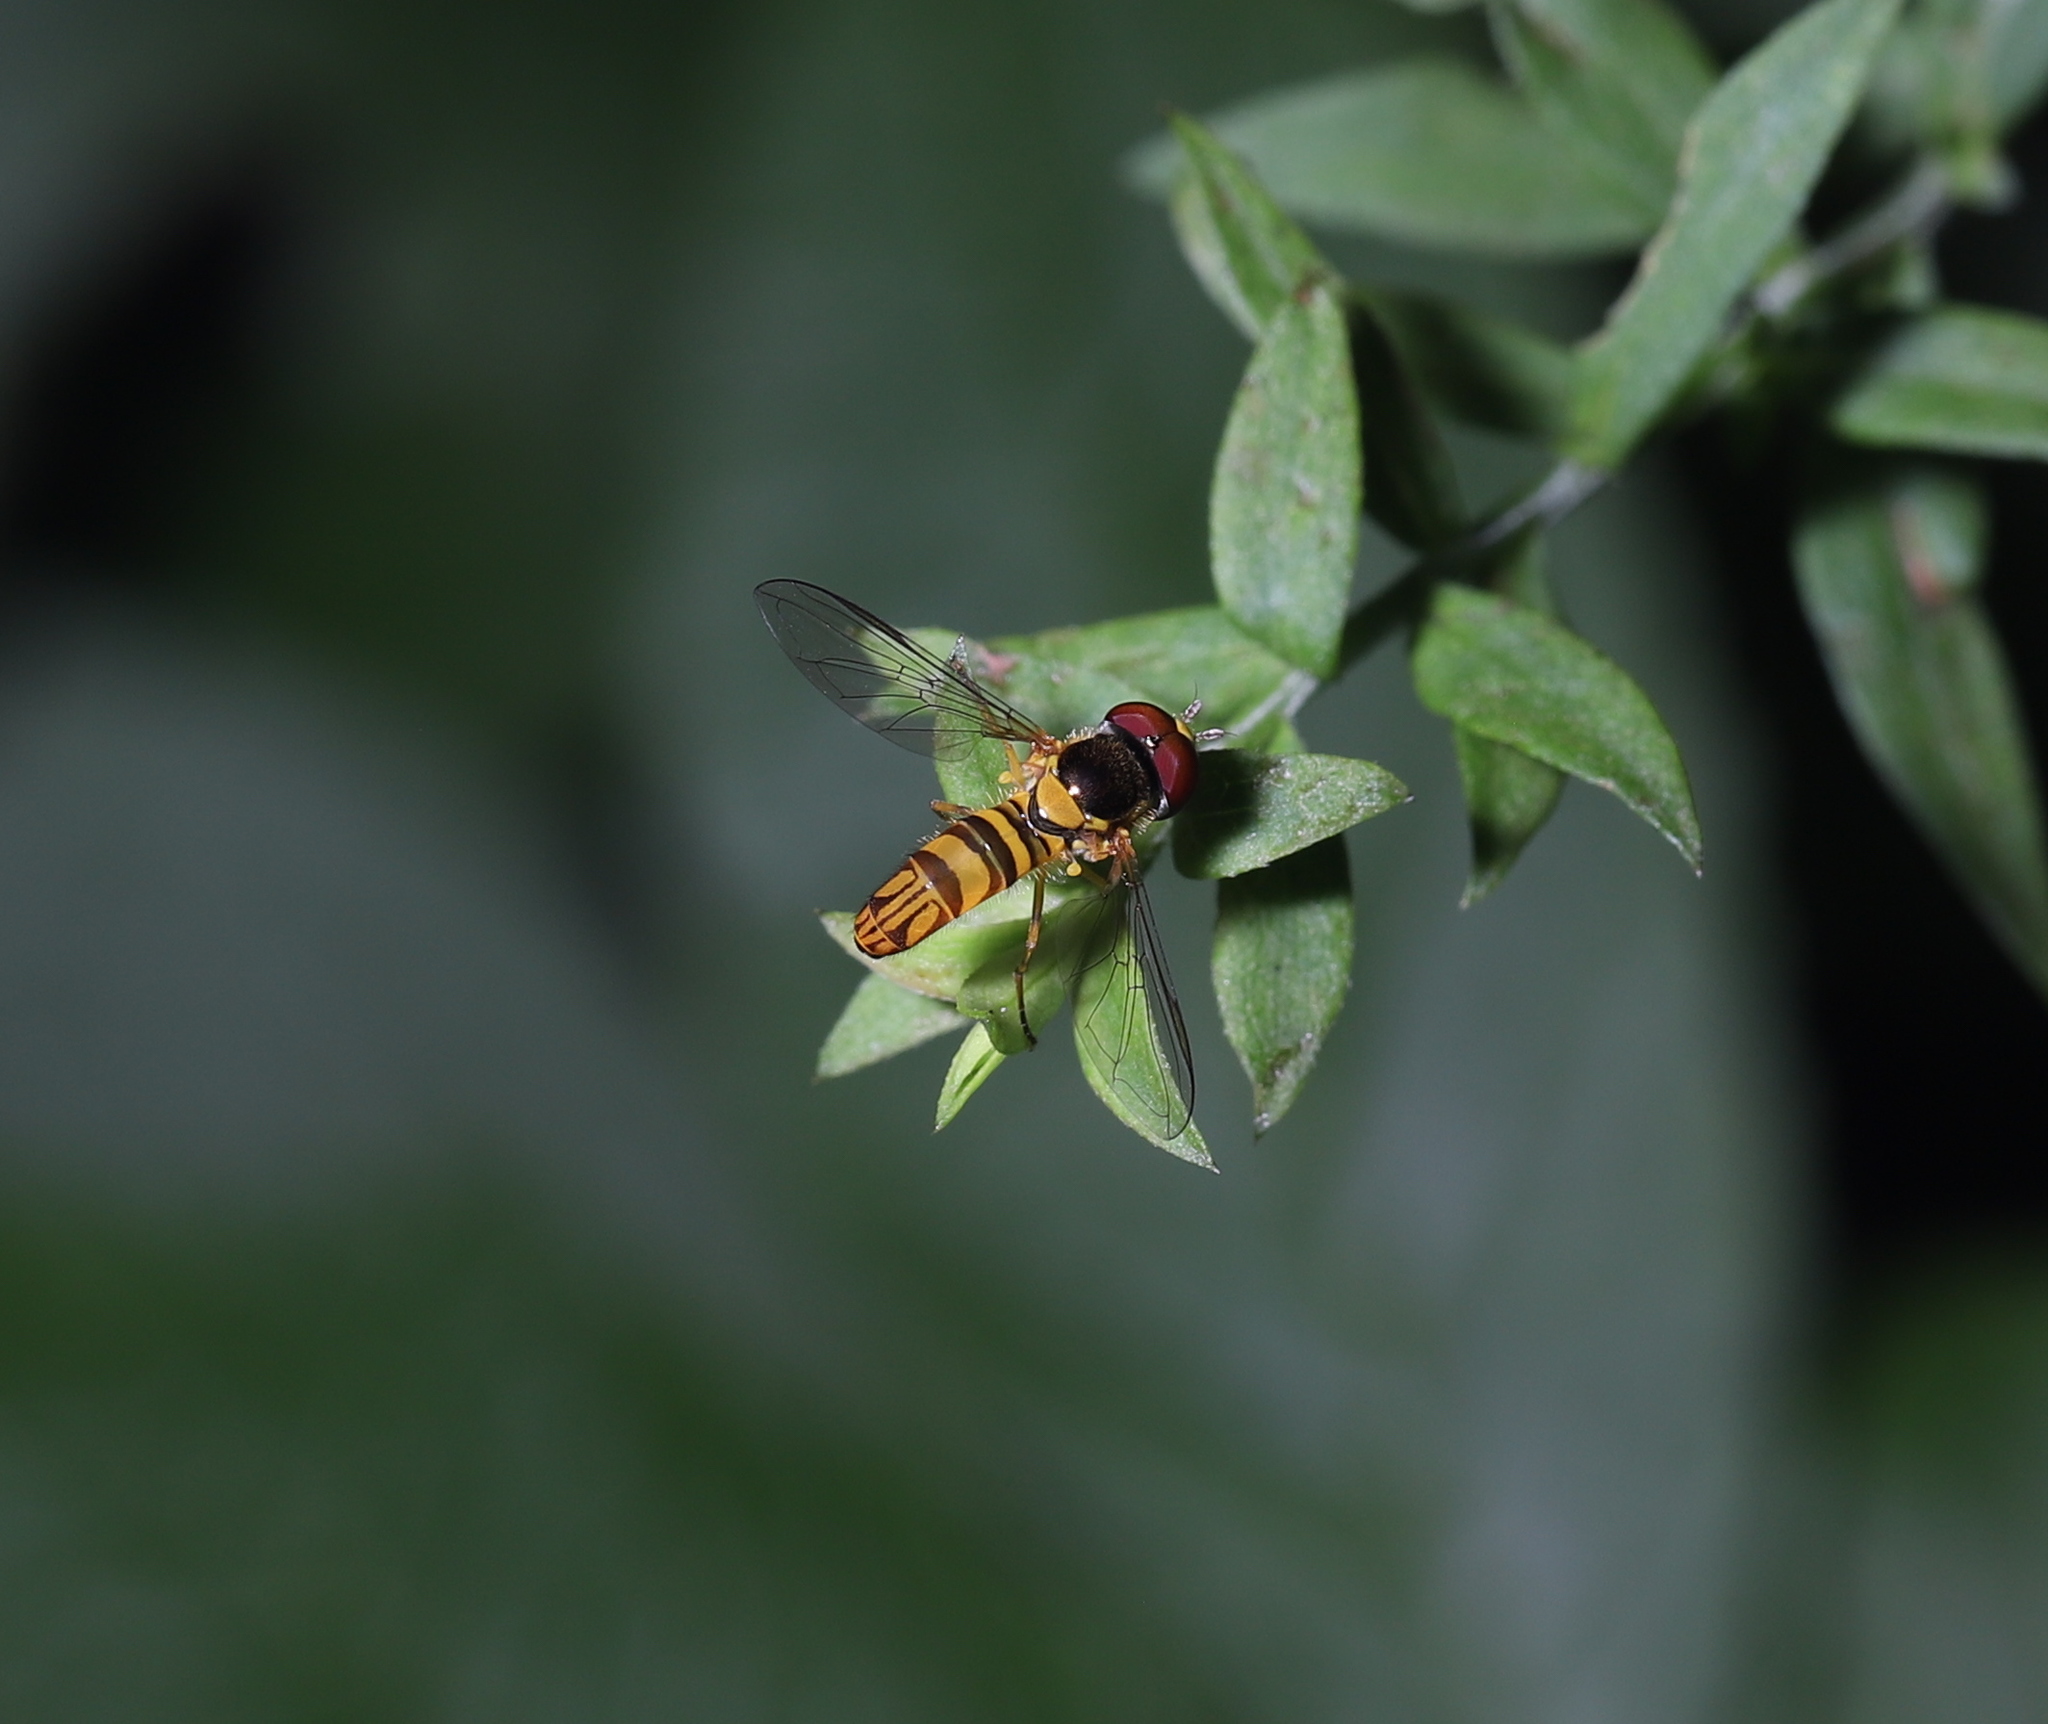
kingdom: Animalia
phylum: Arthropoda
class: Insecta
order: Diptera
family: Syrphidae
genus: Allograpta
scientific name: Allograpta obliqua
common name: Common oblique syrphid
